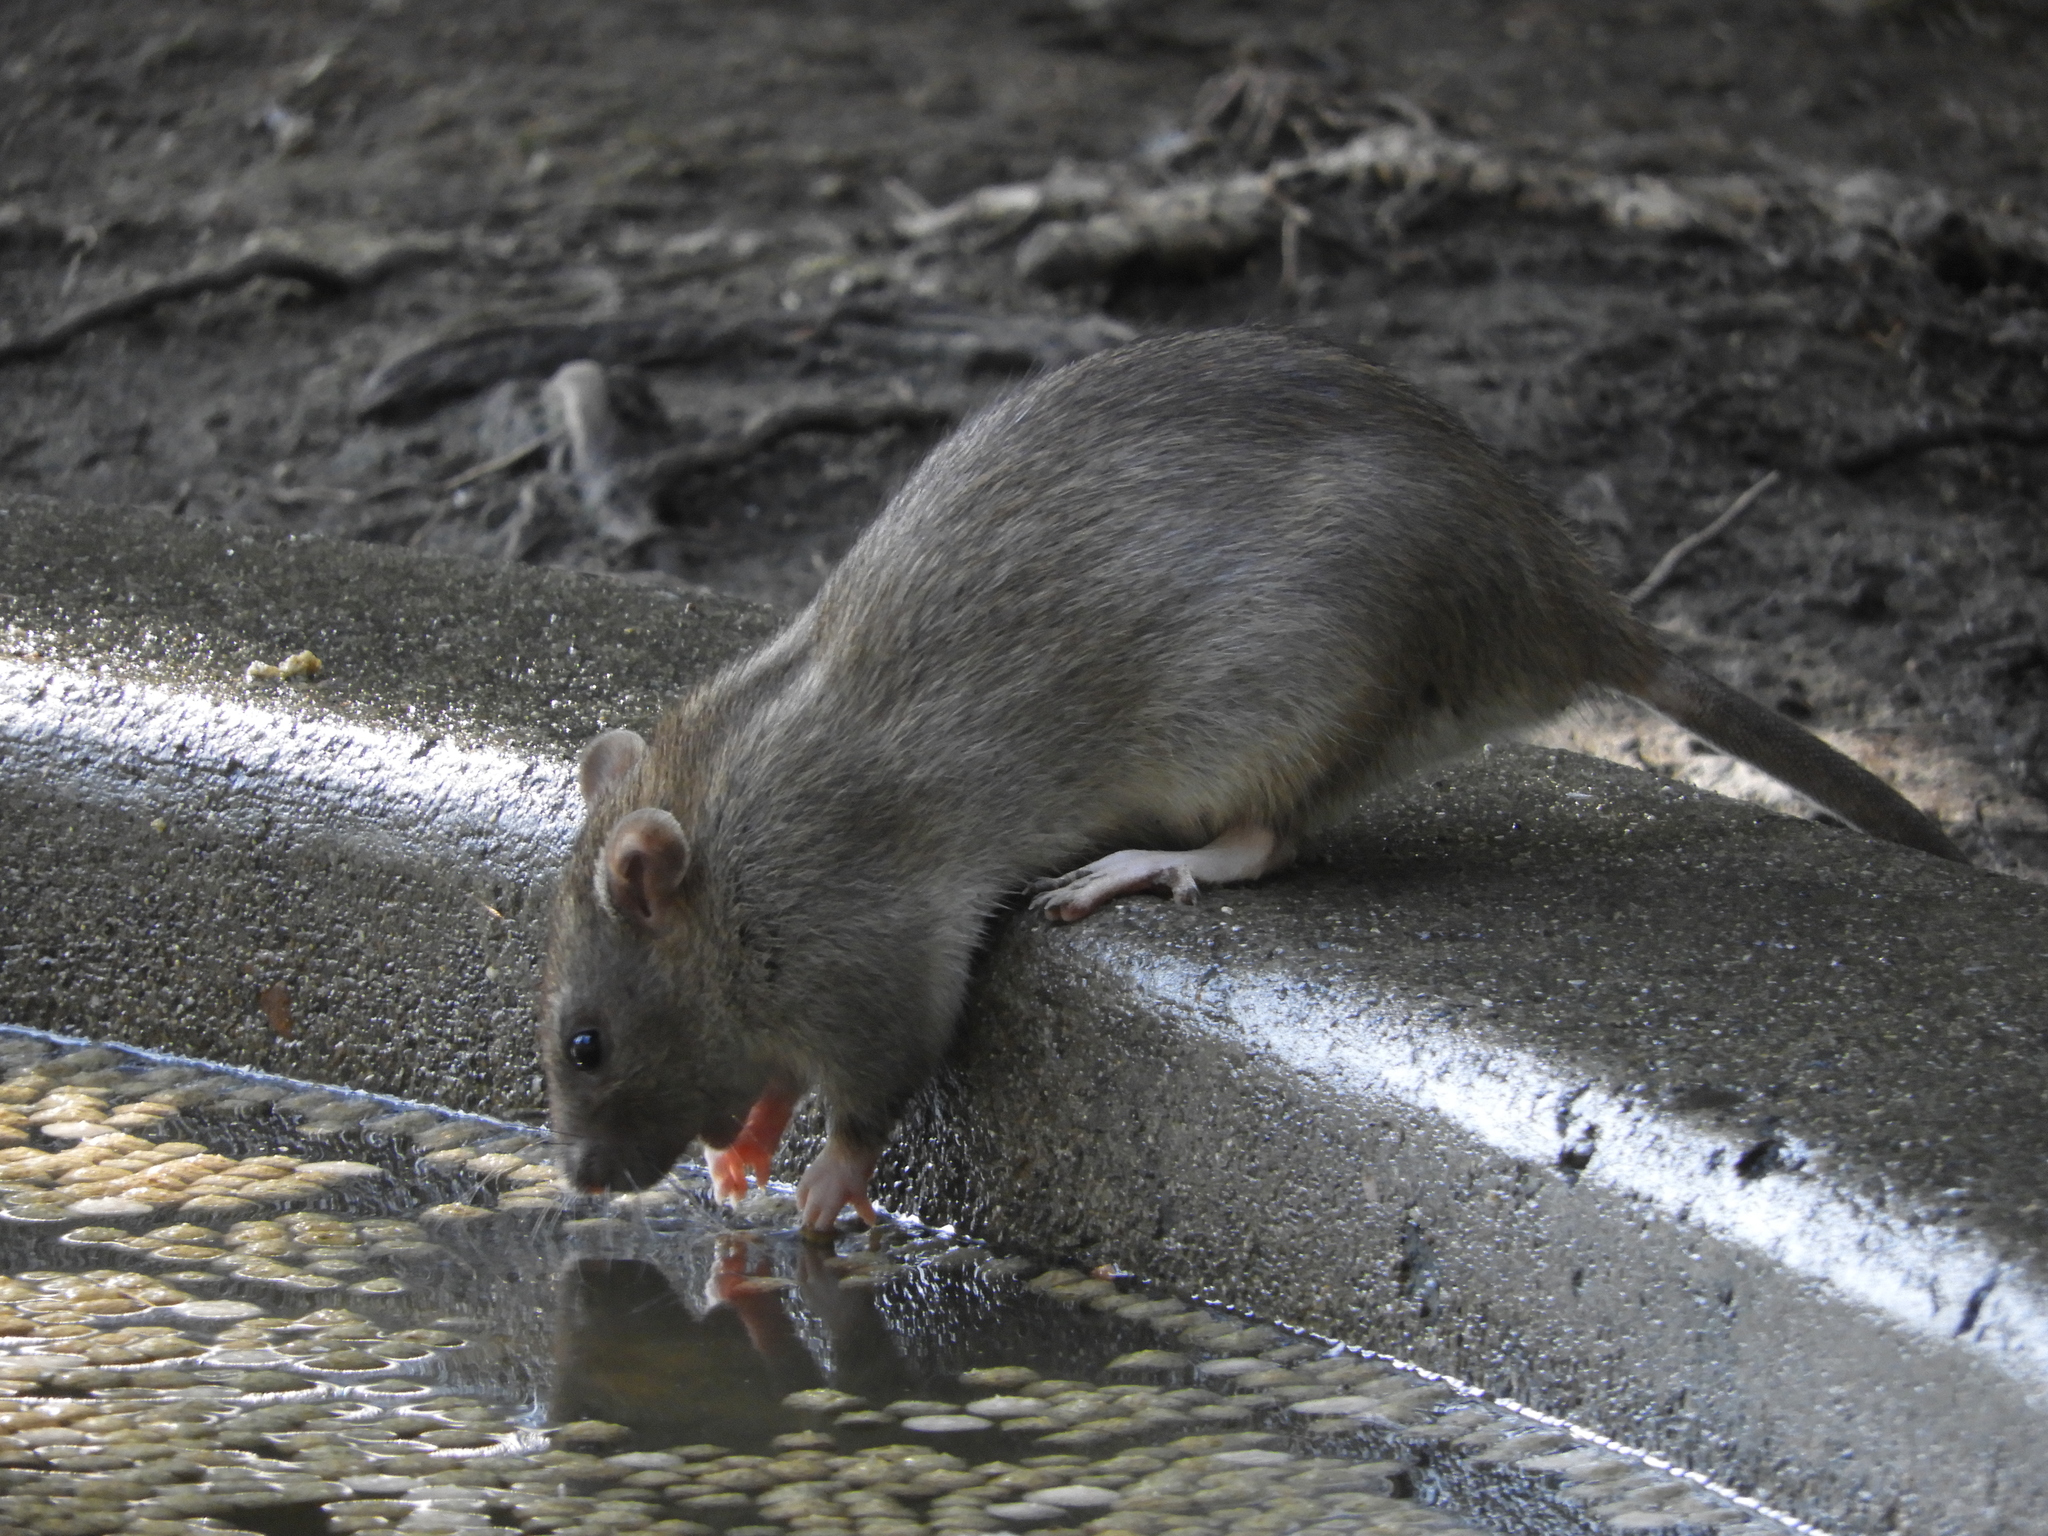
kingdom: Animalia
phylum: Chordata
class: Mammalia
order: Rodentia
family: Muridae
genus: Rattus
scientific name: Rattus norvegicus
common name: Brown rat
